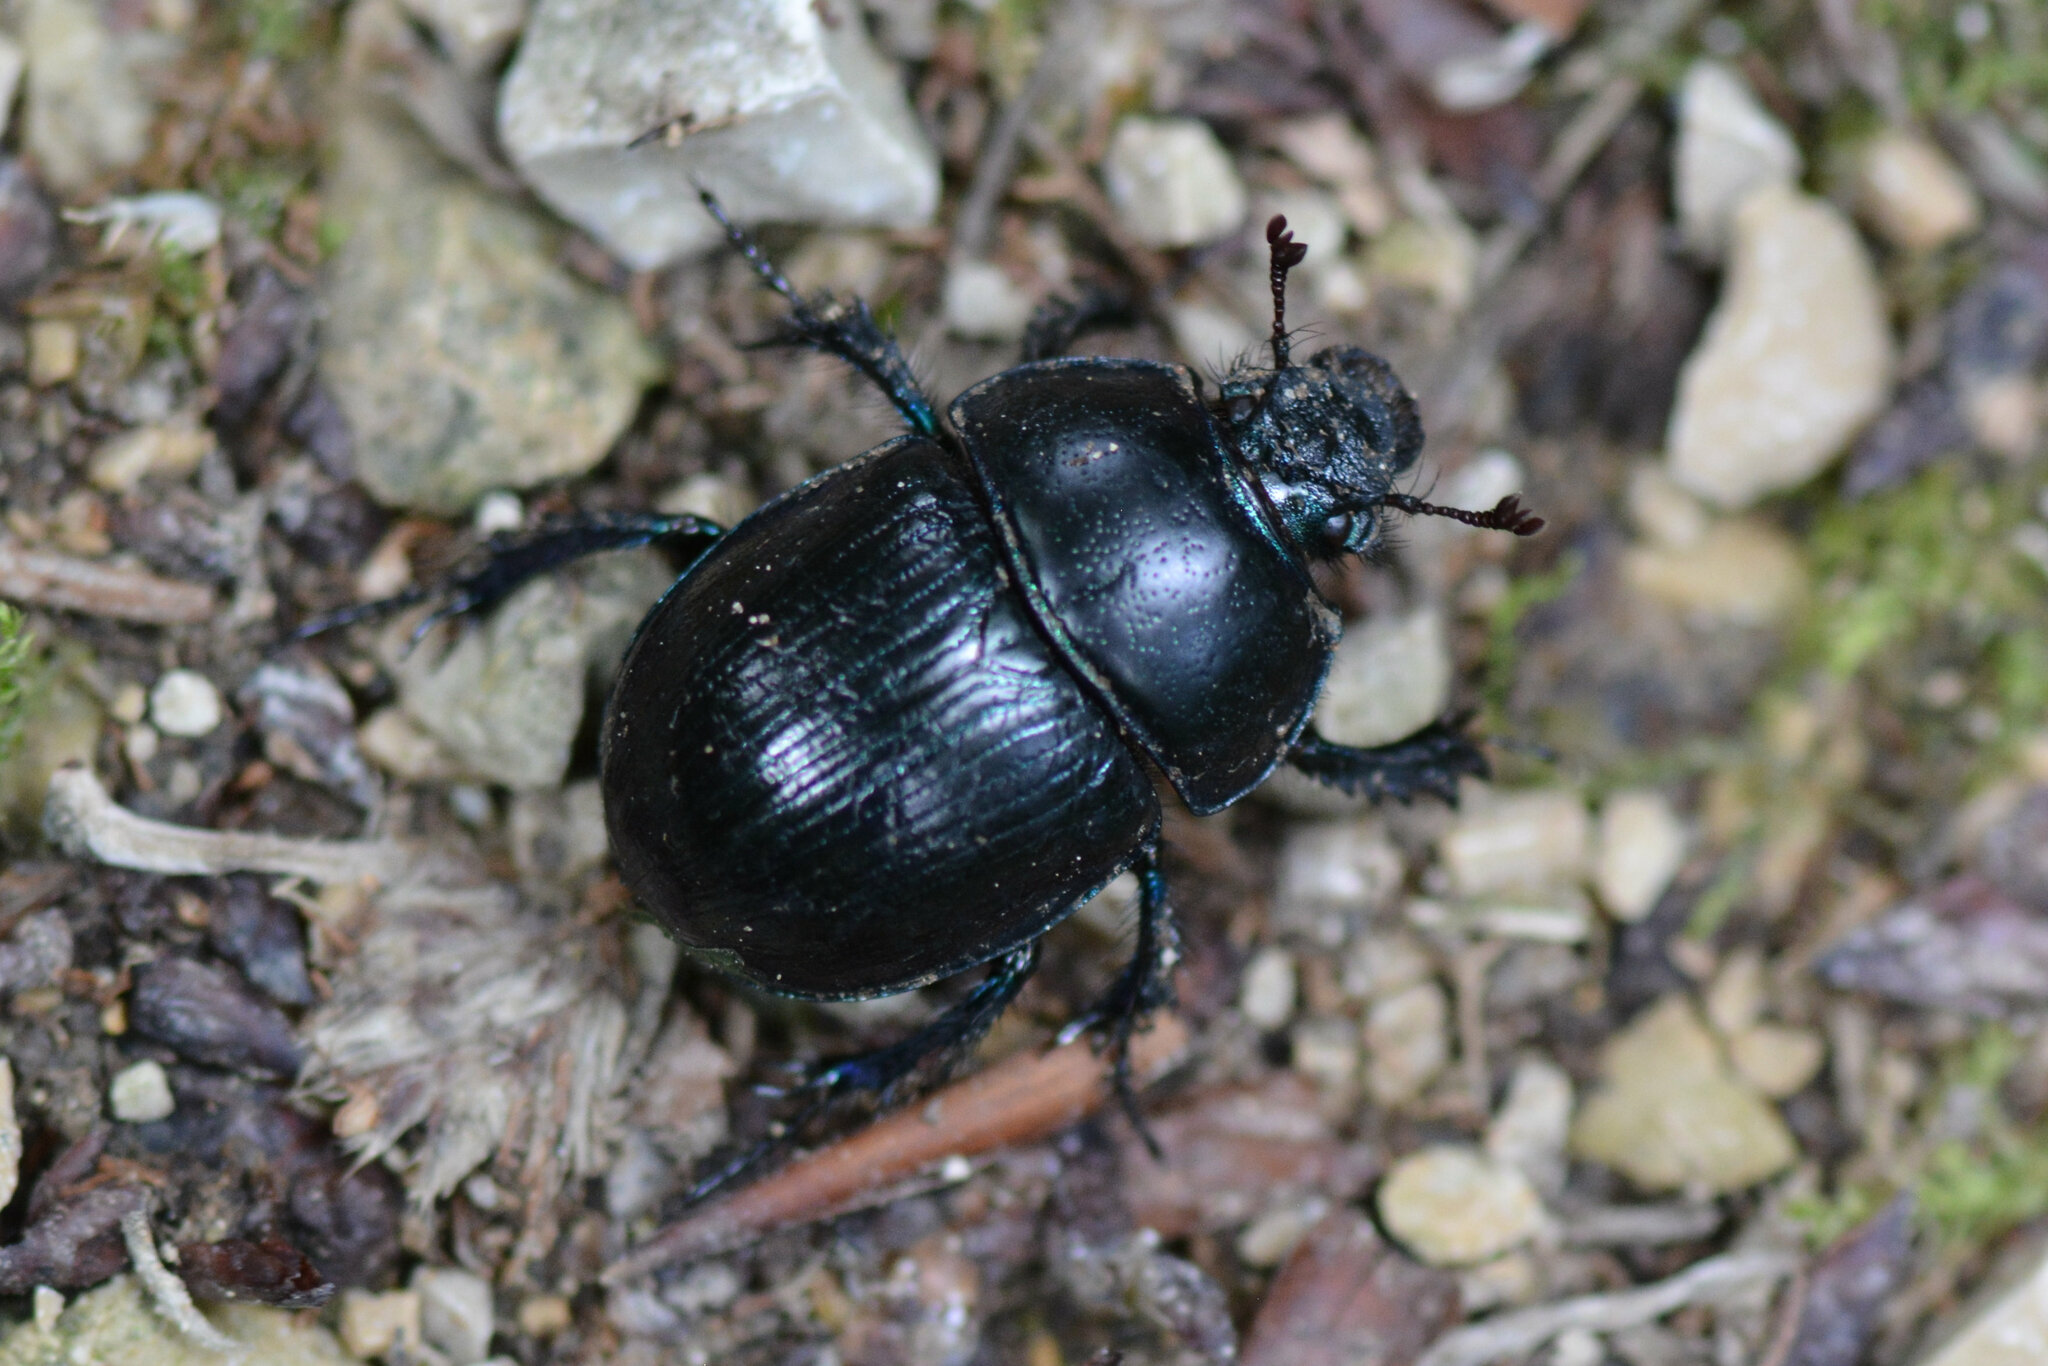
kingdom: Animalia
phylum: Arthropoda
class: Insecta
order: Coleoptera
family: Geotrupidae
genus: Anoplotrupes
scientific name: Anoplotrupes stercorosus
